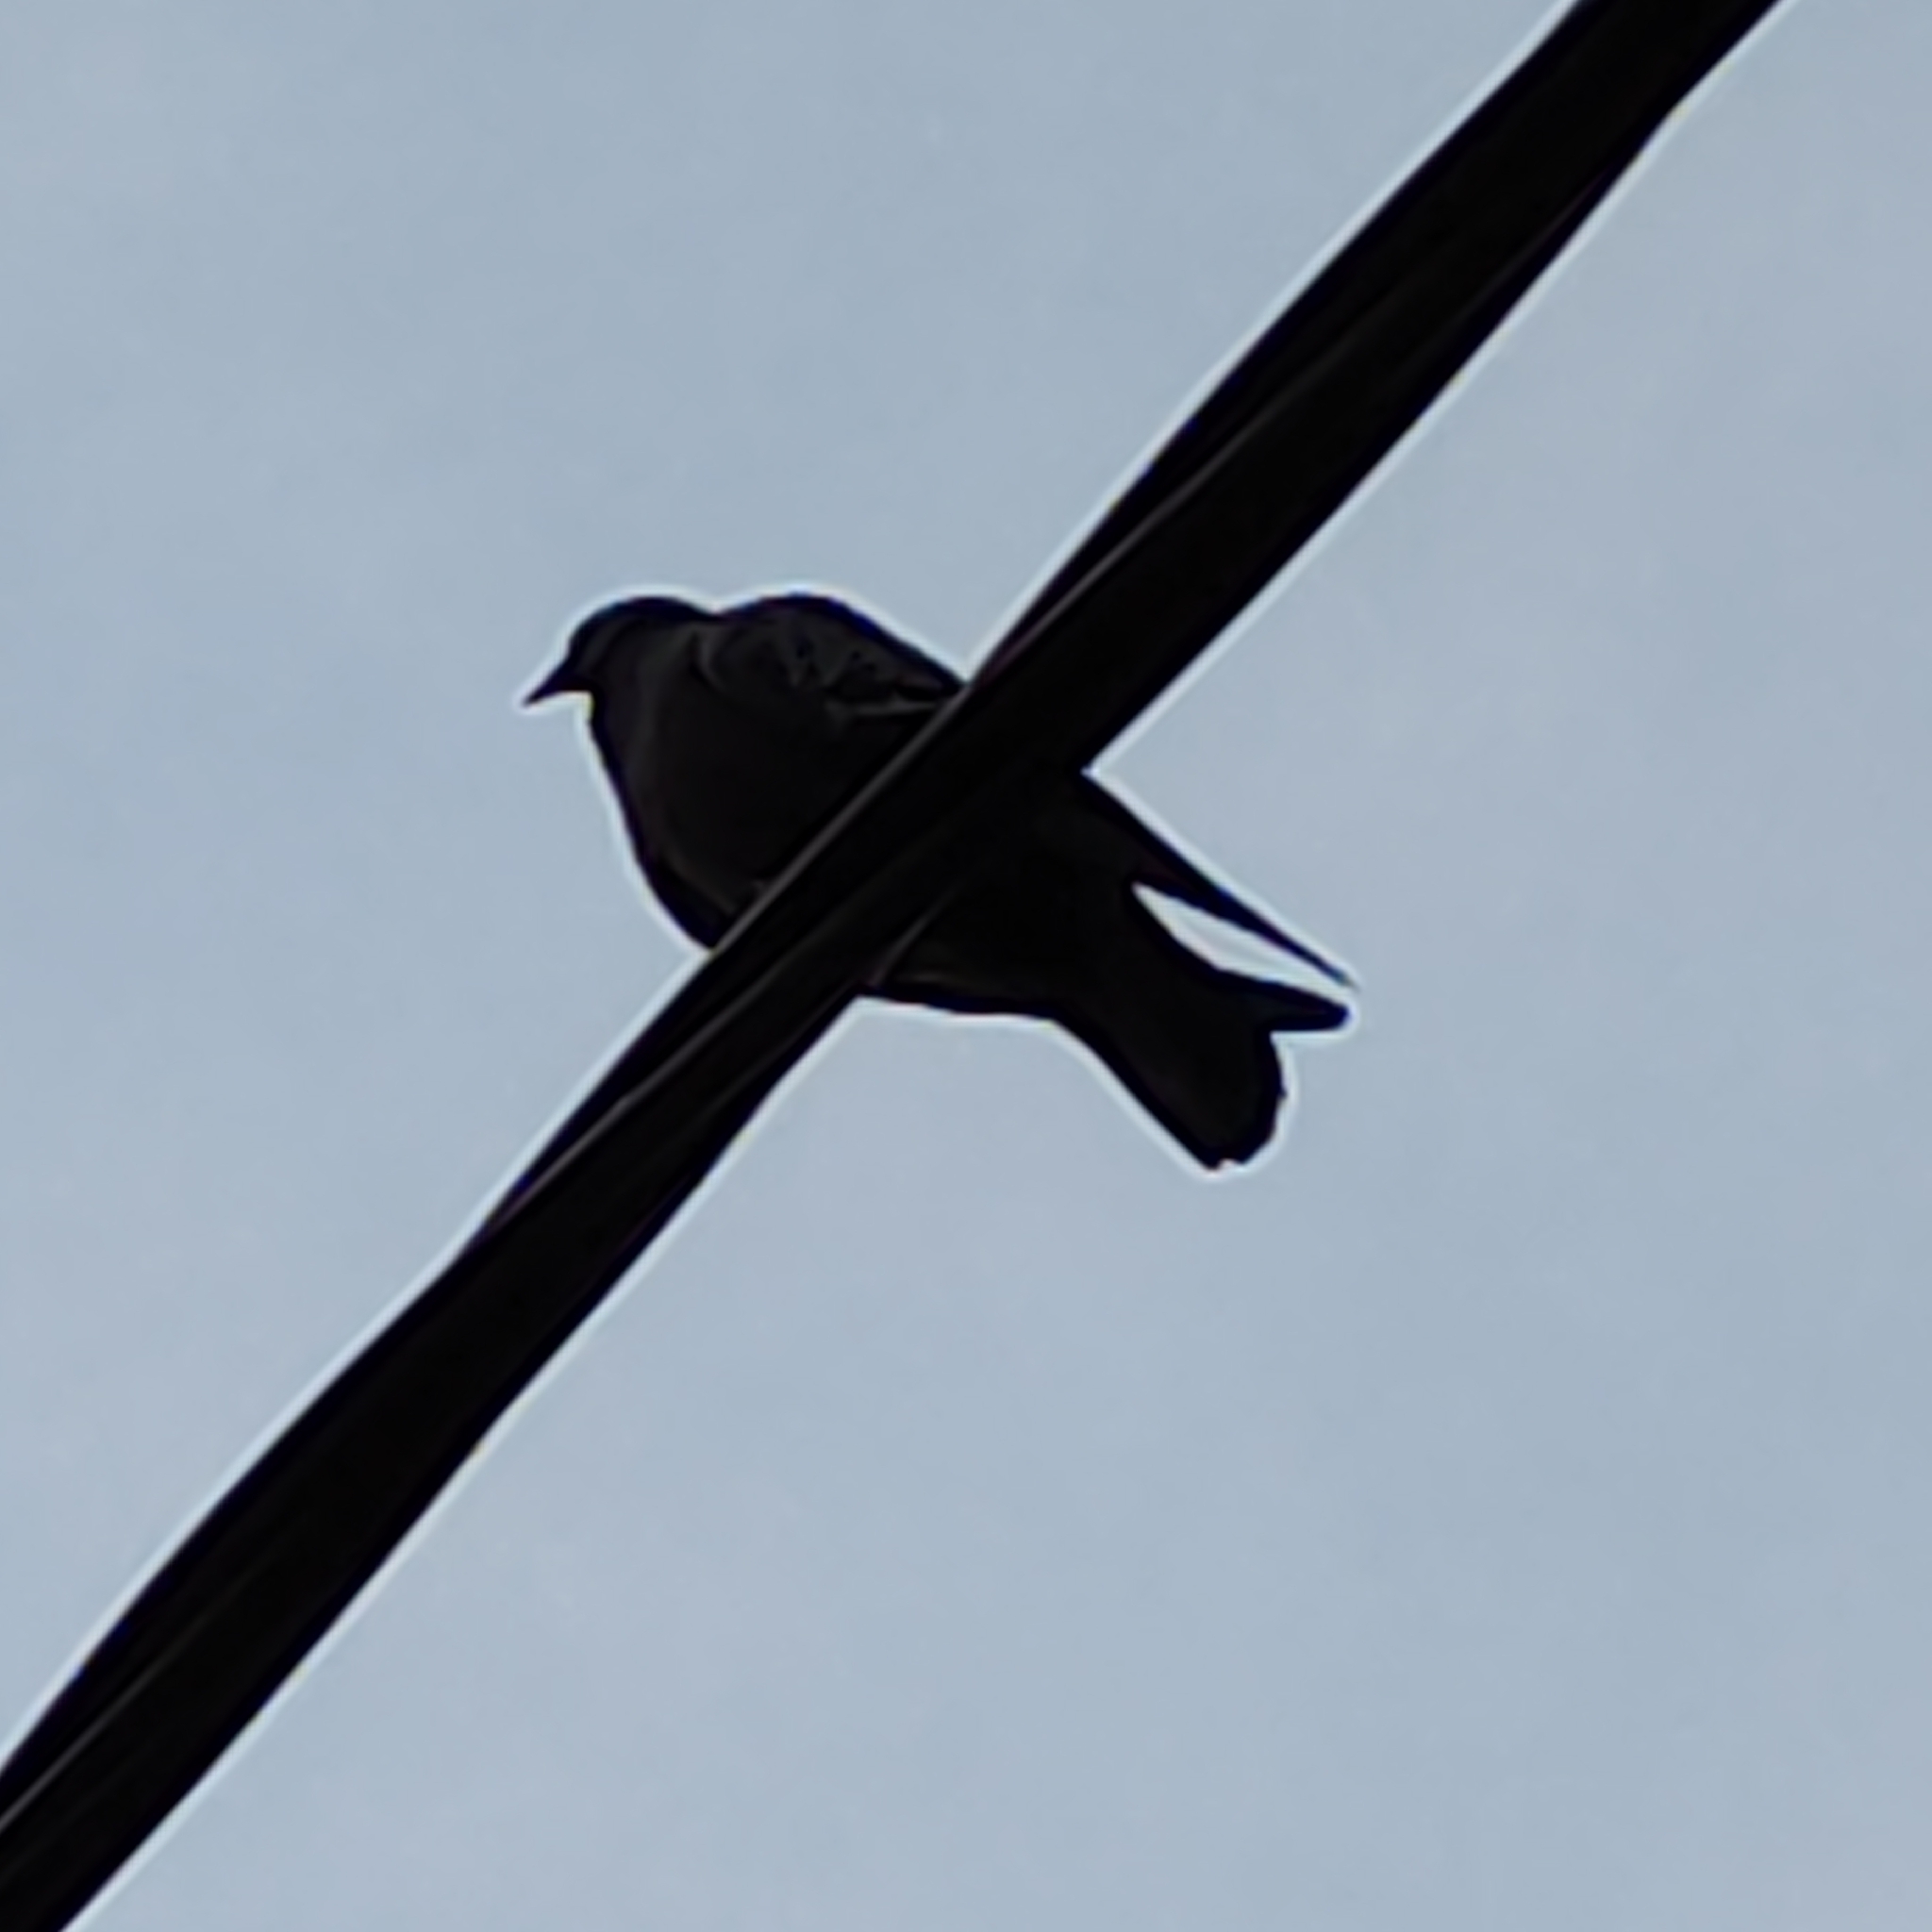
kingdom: Animalia
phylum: Chordata
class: Aves
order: Columbiformes
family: Columbidae
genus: Columba
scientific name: Columba livia
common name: Rock pigeon
